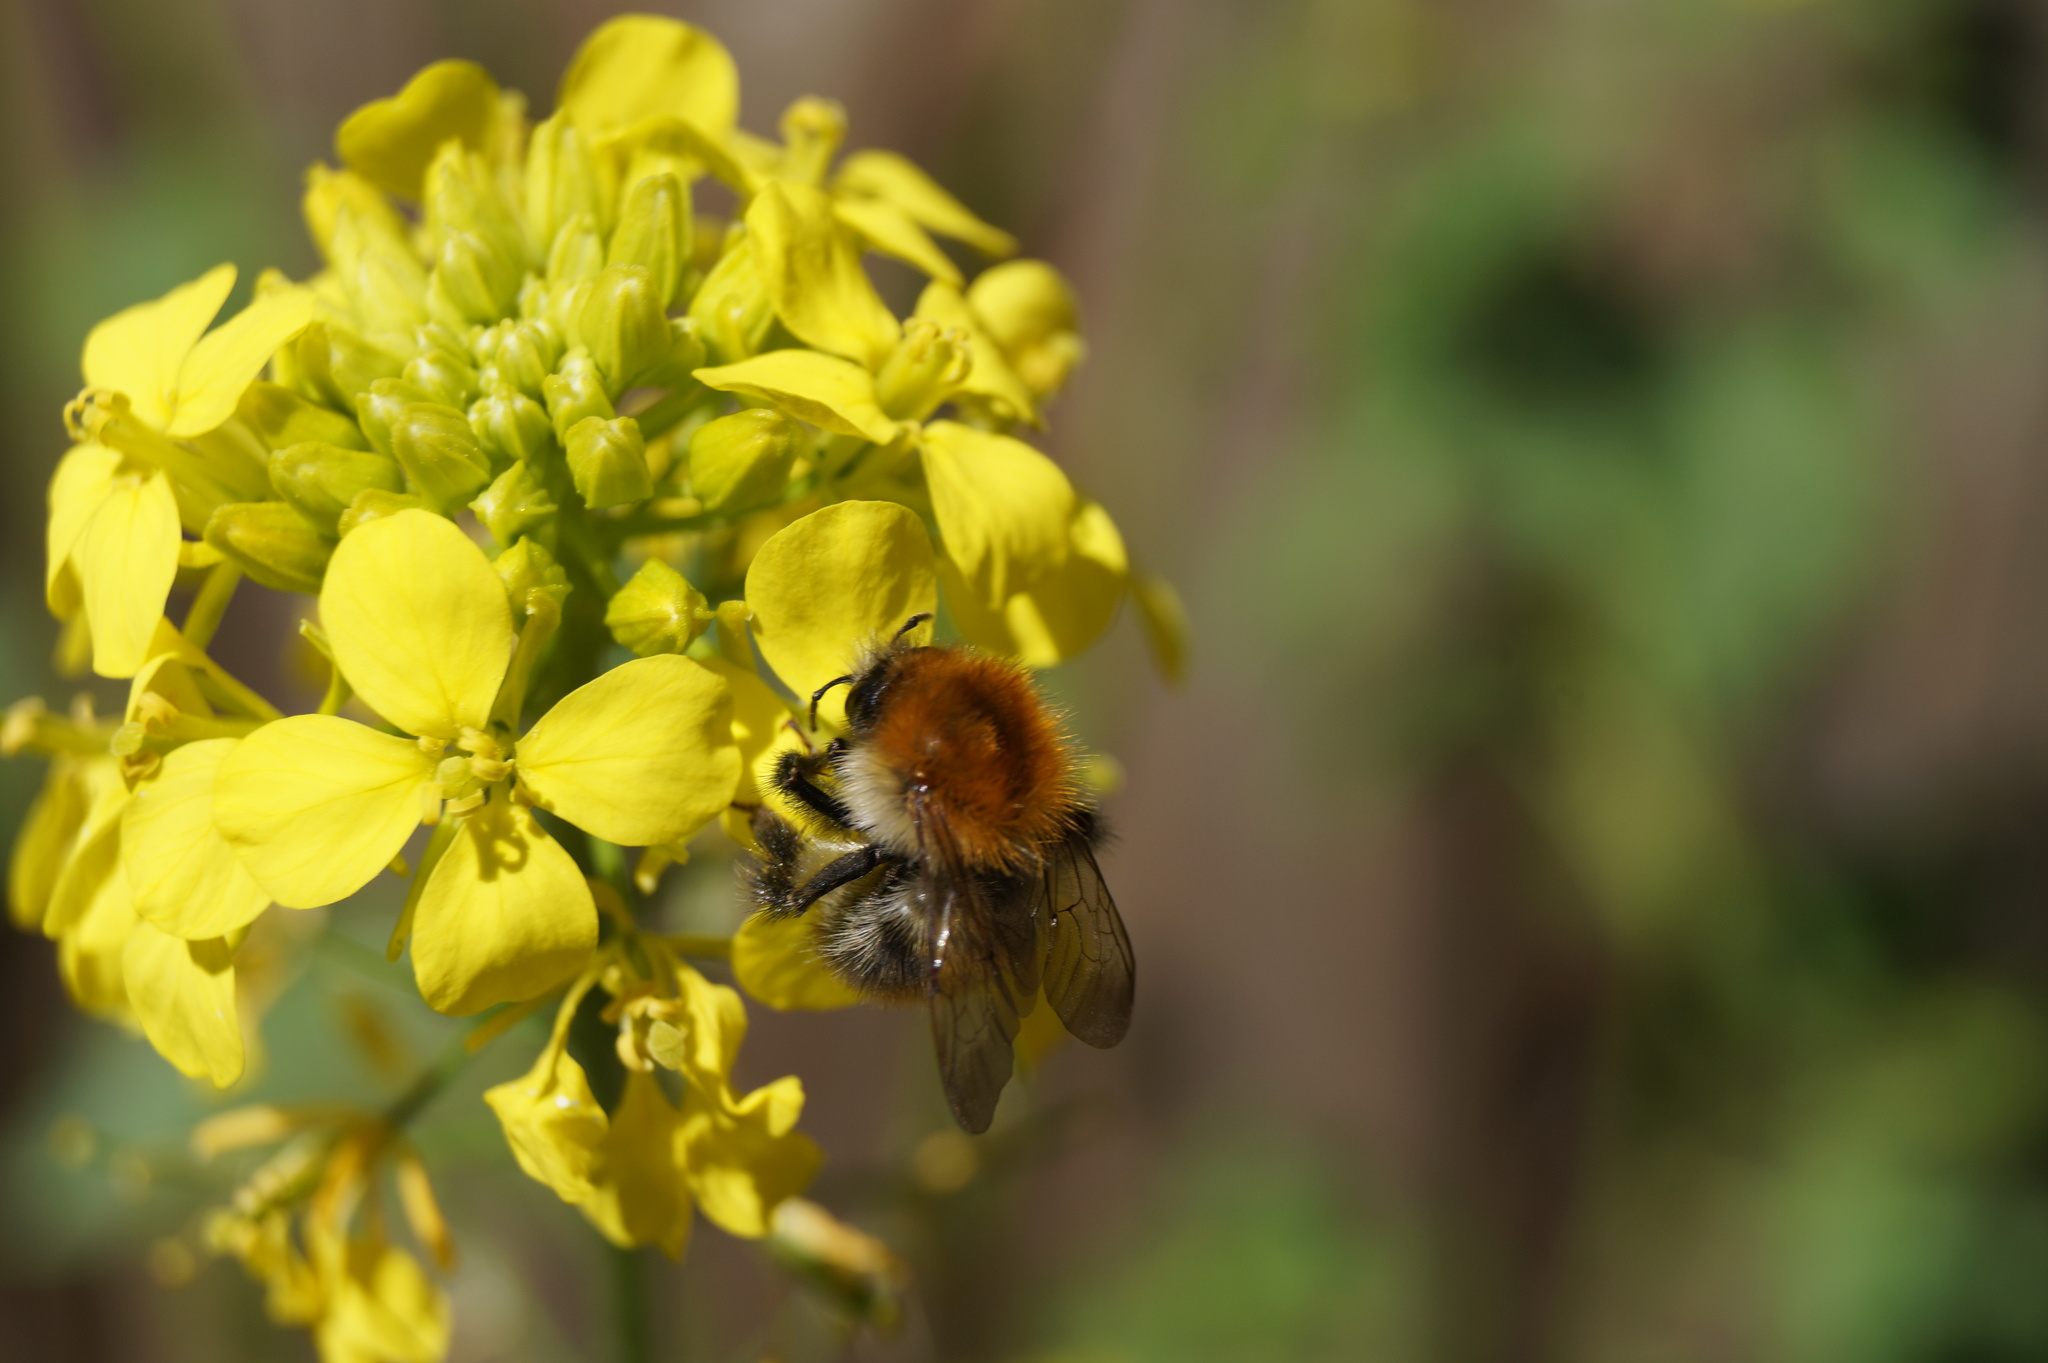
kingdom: Animalia
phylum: Arthropoda
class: Insecta
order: Hymenoptera
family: Apidae
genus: Bombus
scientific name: Bombus pascuorum
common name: Common carder bee
